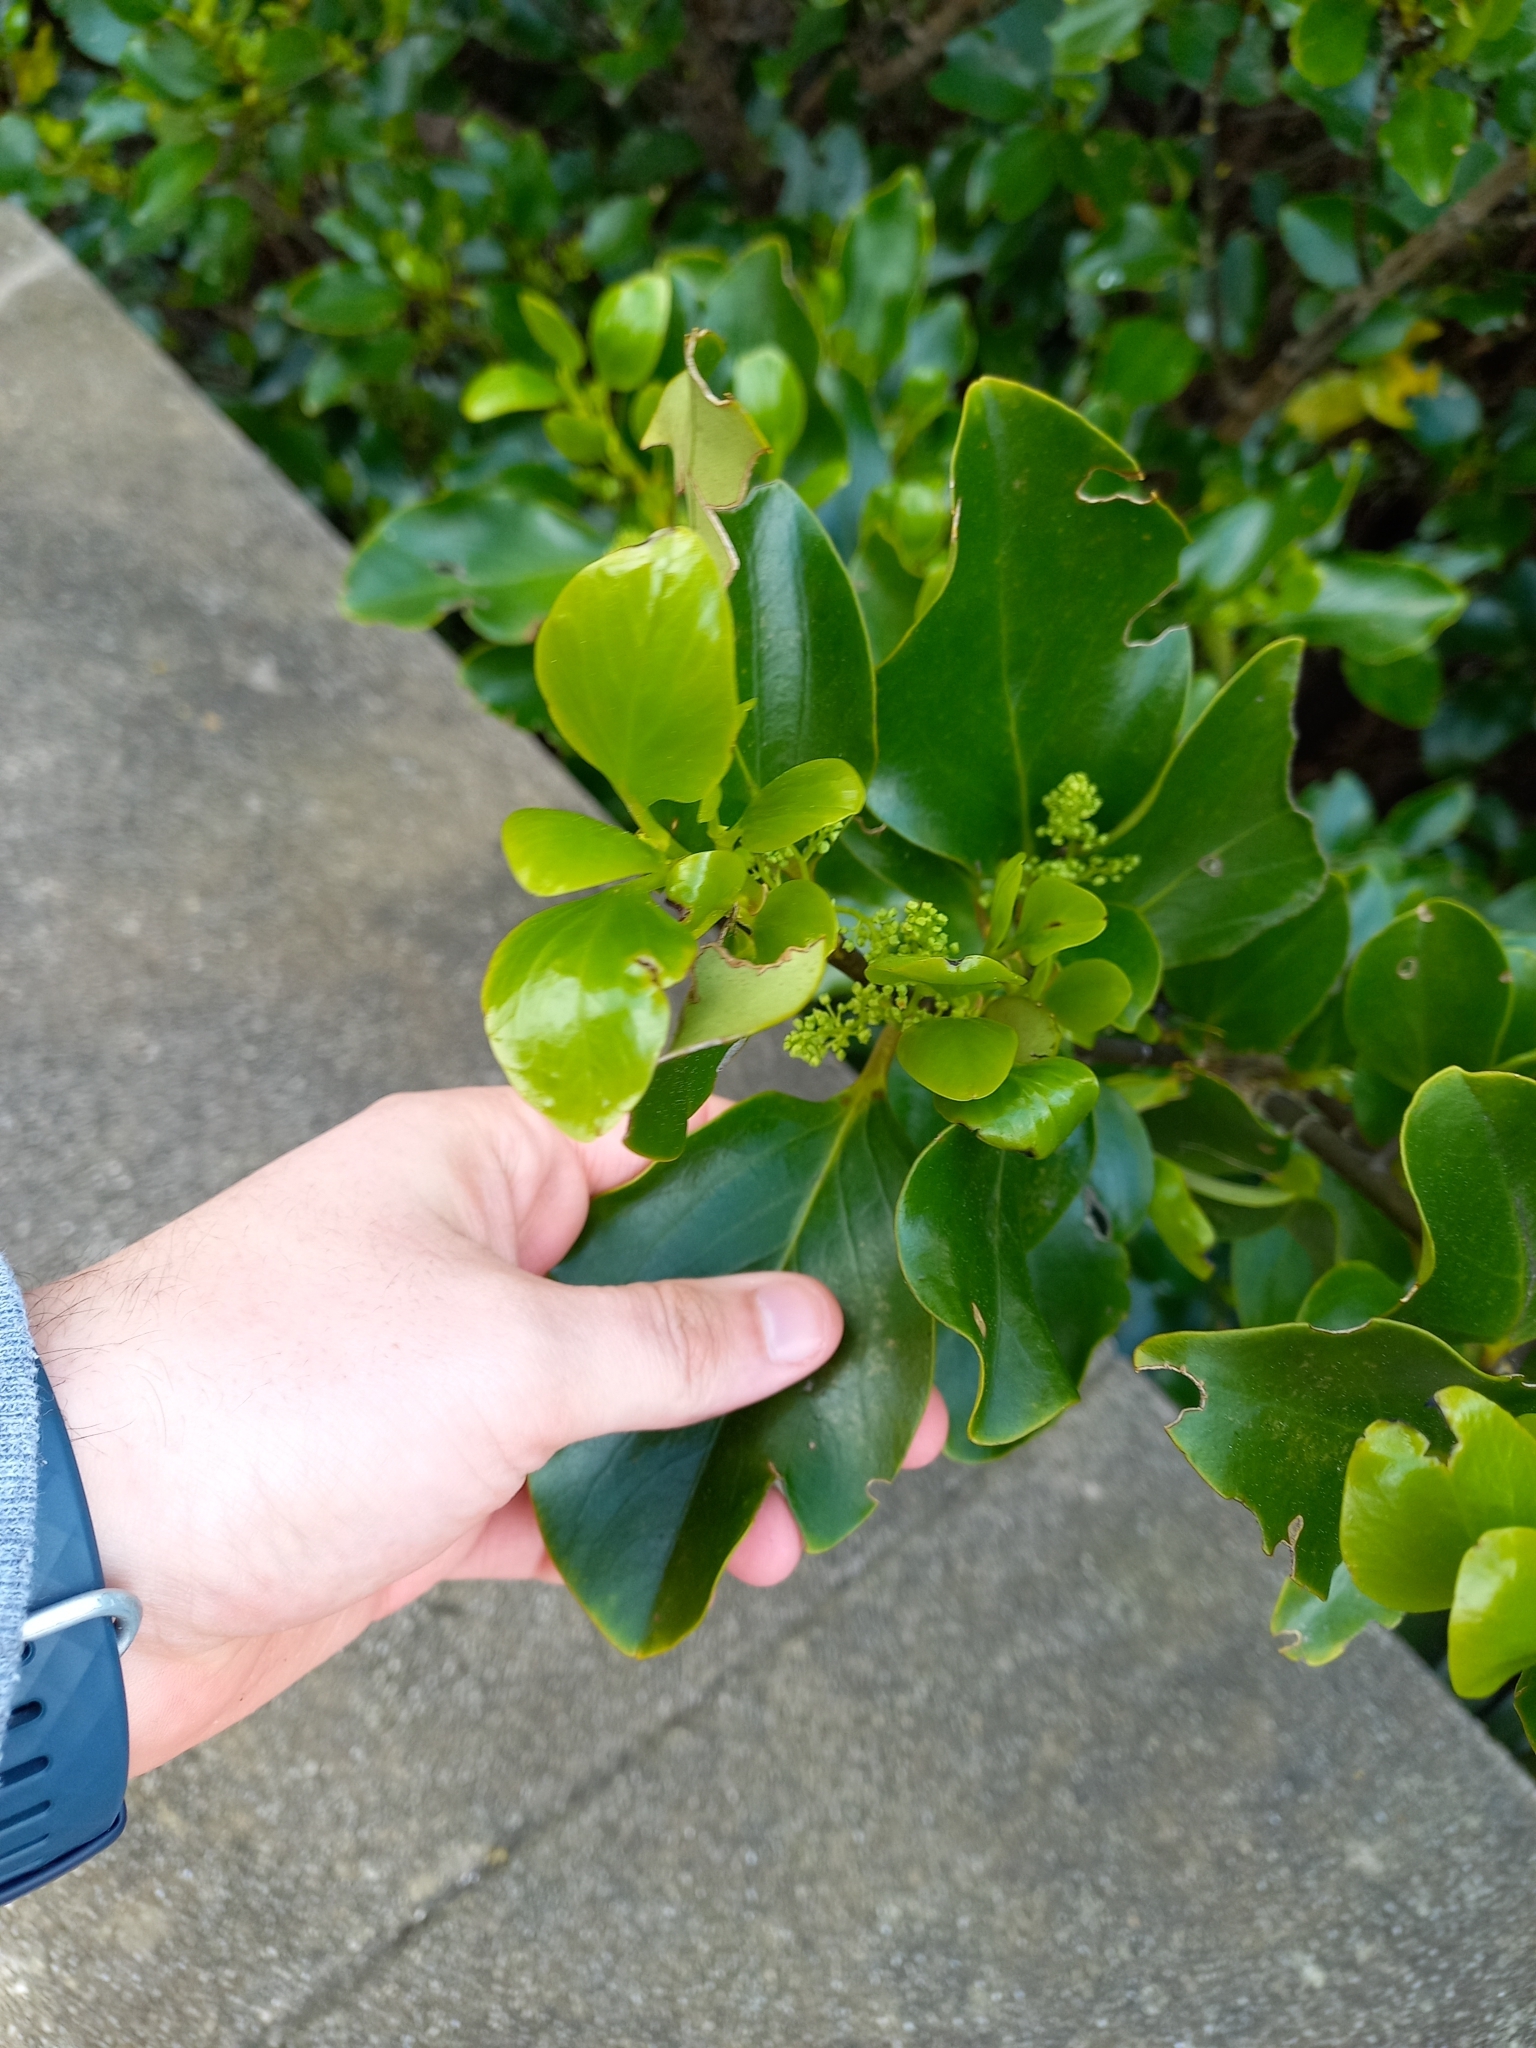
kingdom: Plantae
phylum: Tracheophyta
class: Magnoliopsida
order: Apiales
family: Griseliniaceae
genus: Griselinia
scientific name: Griselinia littoralis
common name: New zealand broadleaf
